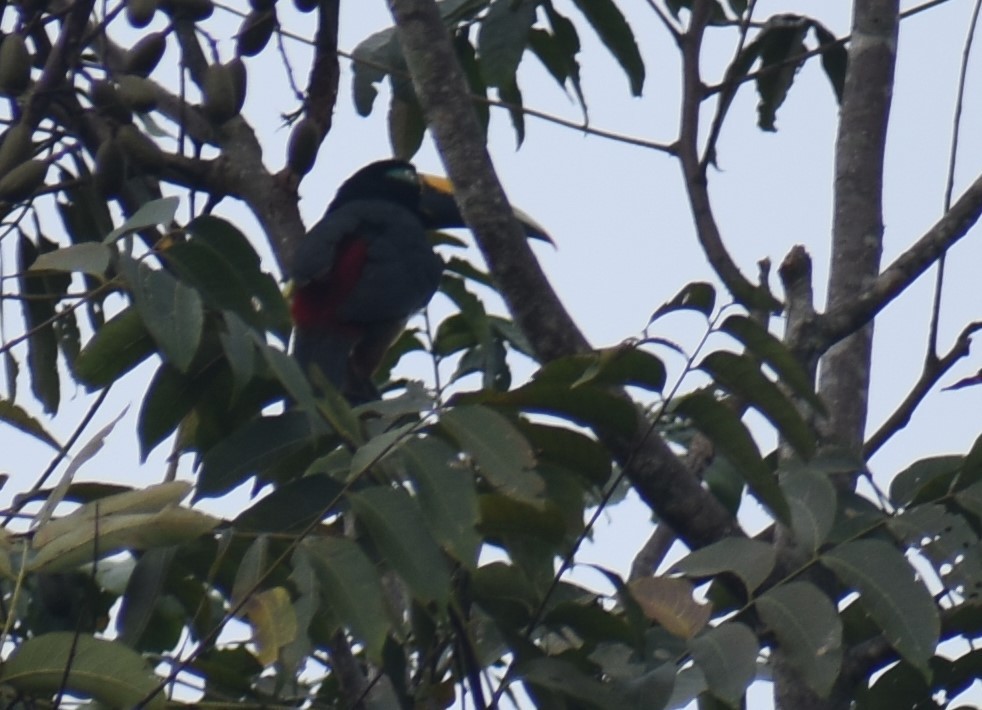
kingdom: Animalia
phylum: Chordata
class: Aves
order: Piciformes
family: Ramphastidae
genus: Pteroglossus
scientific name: Pteroglossus pluricinctus
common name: Many-banded aracari
